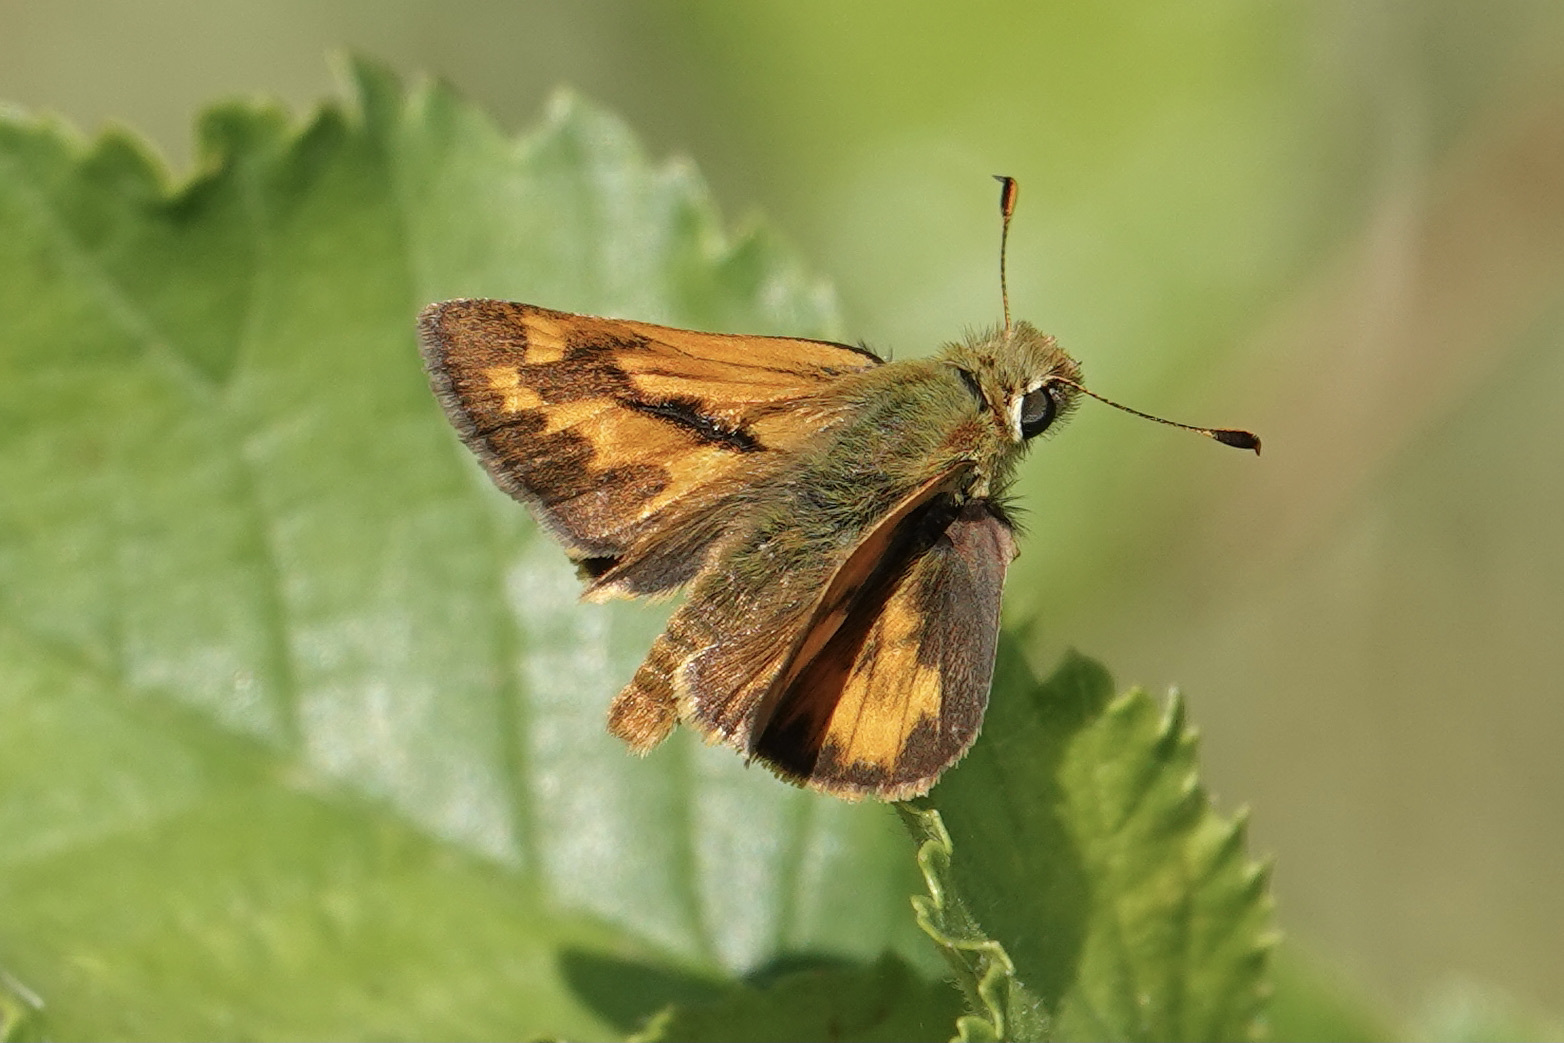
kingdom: Animalia
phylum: Arthropoda
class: Insecta
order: Lepidoptera
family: Hesperiidae
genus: Ochlodes
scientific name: Ochlodes sylvanoides
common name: Woodland skipper
